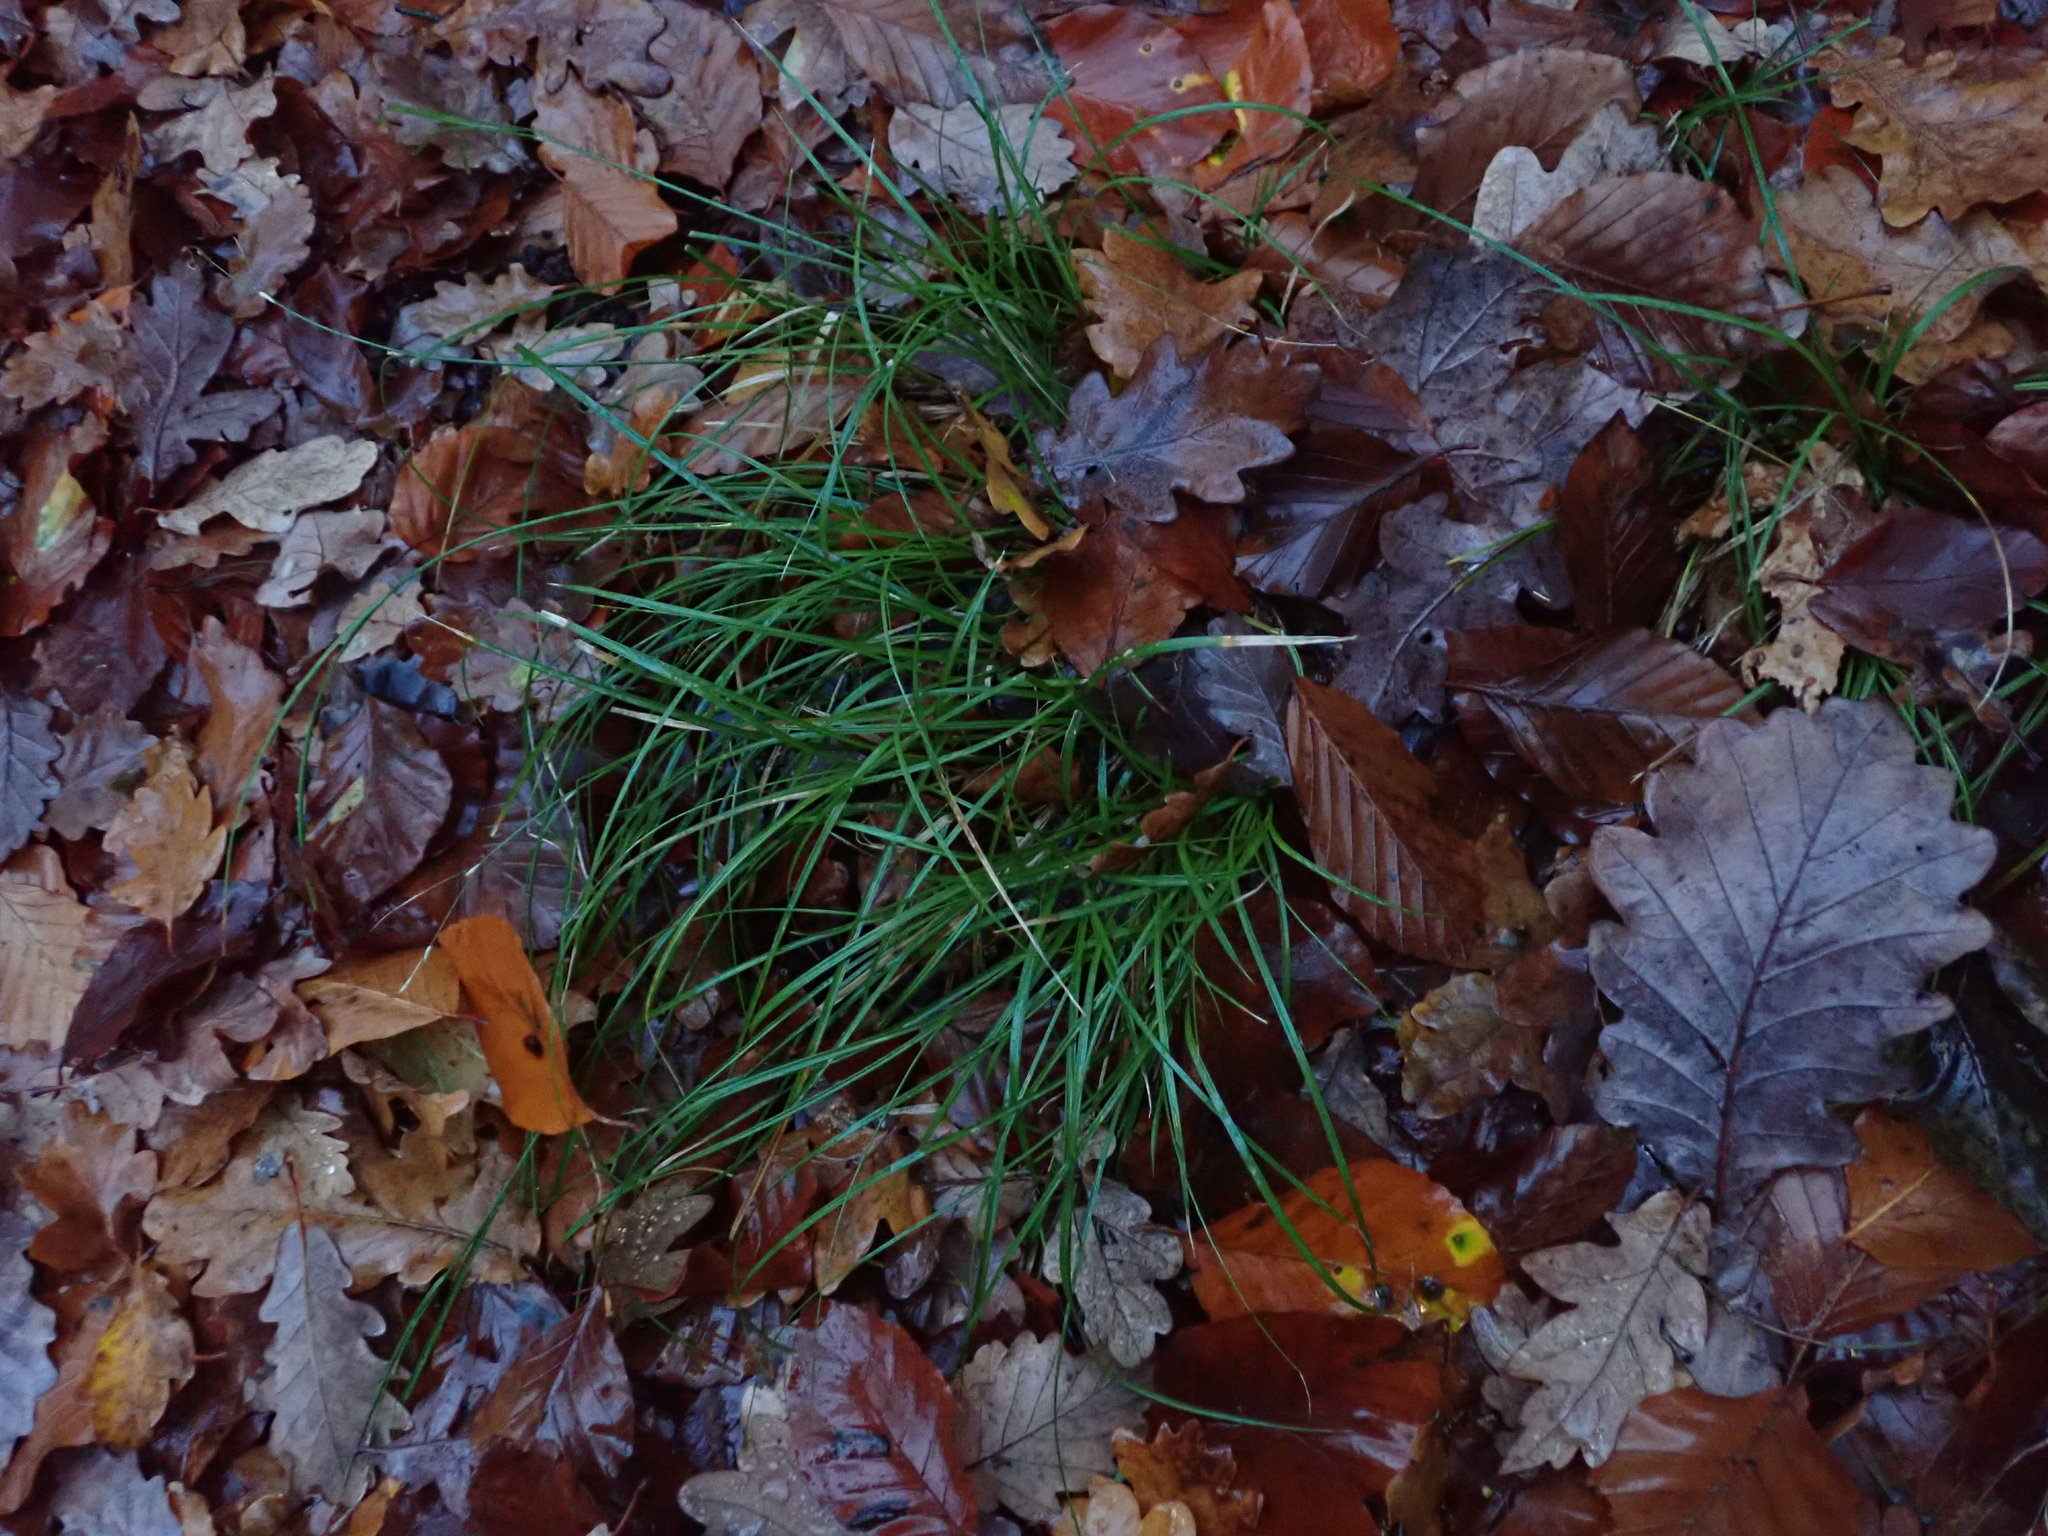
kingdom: Plantae
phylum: Tracheophyta
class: Liliopsida
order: Poales
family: Cyperaceae
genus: Carex
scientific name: Carex remota
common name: Remote sedge
